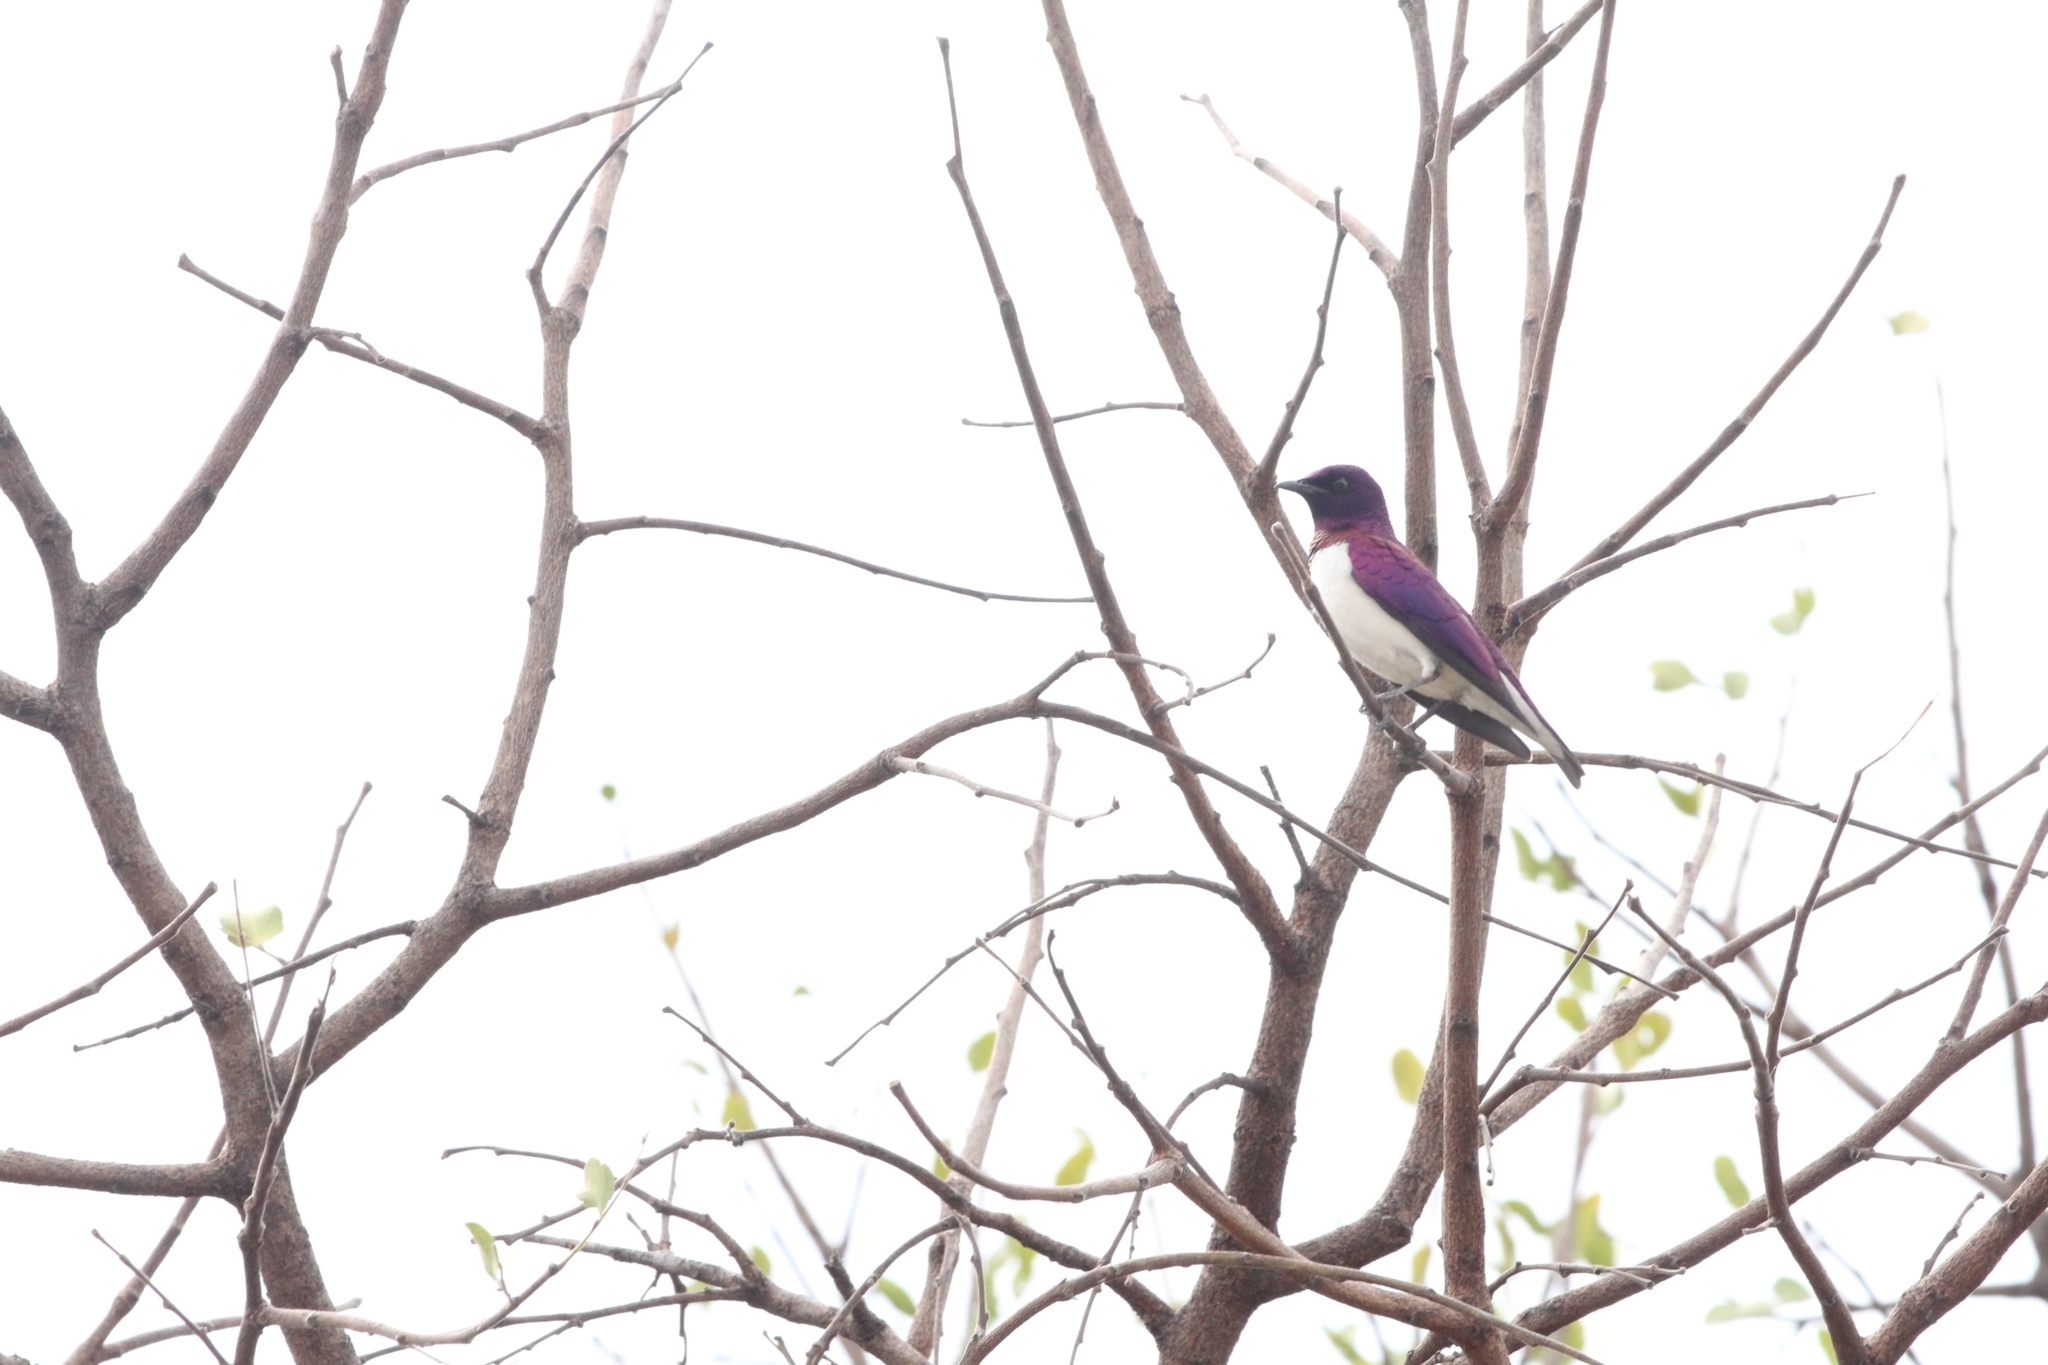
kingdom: Animalia
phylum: Chordata
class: Aves
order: Passeriformes
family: Sturnidae
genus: Cinnyricinclus
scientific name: Cinnyricinclus leucogaster
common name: Violet-backed starling
